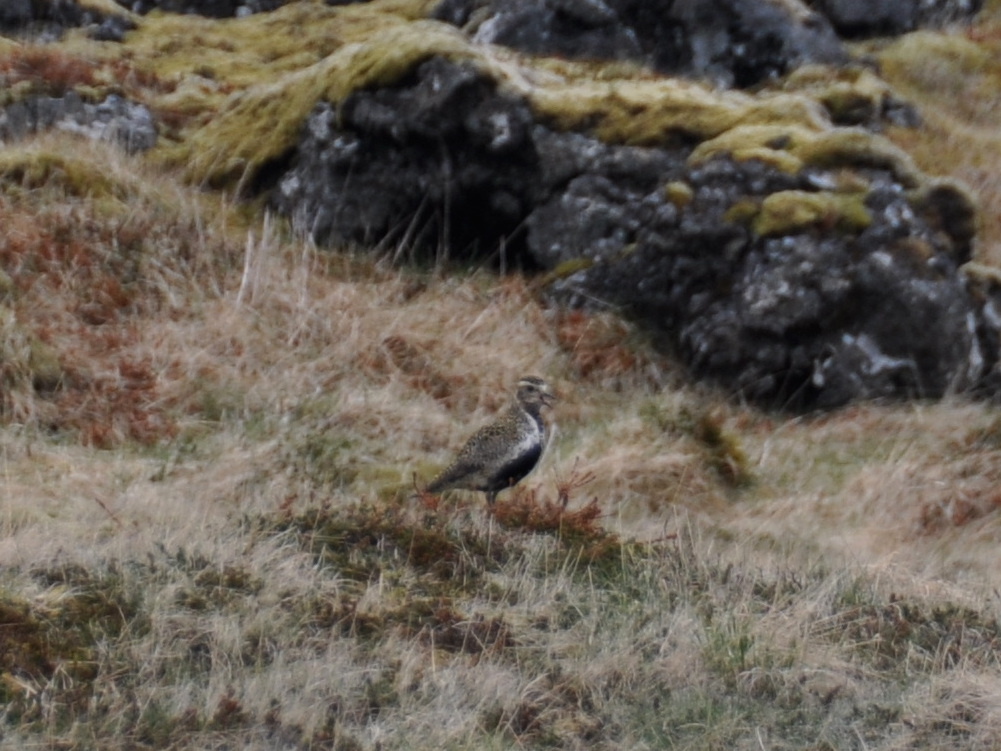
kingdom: Animalia
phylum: Chordata
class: Aves
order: Charadriiformes
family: Charadriidae
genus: Pluvialis
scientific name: Pluvialis apricaria
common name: European golden plover
